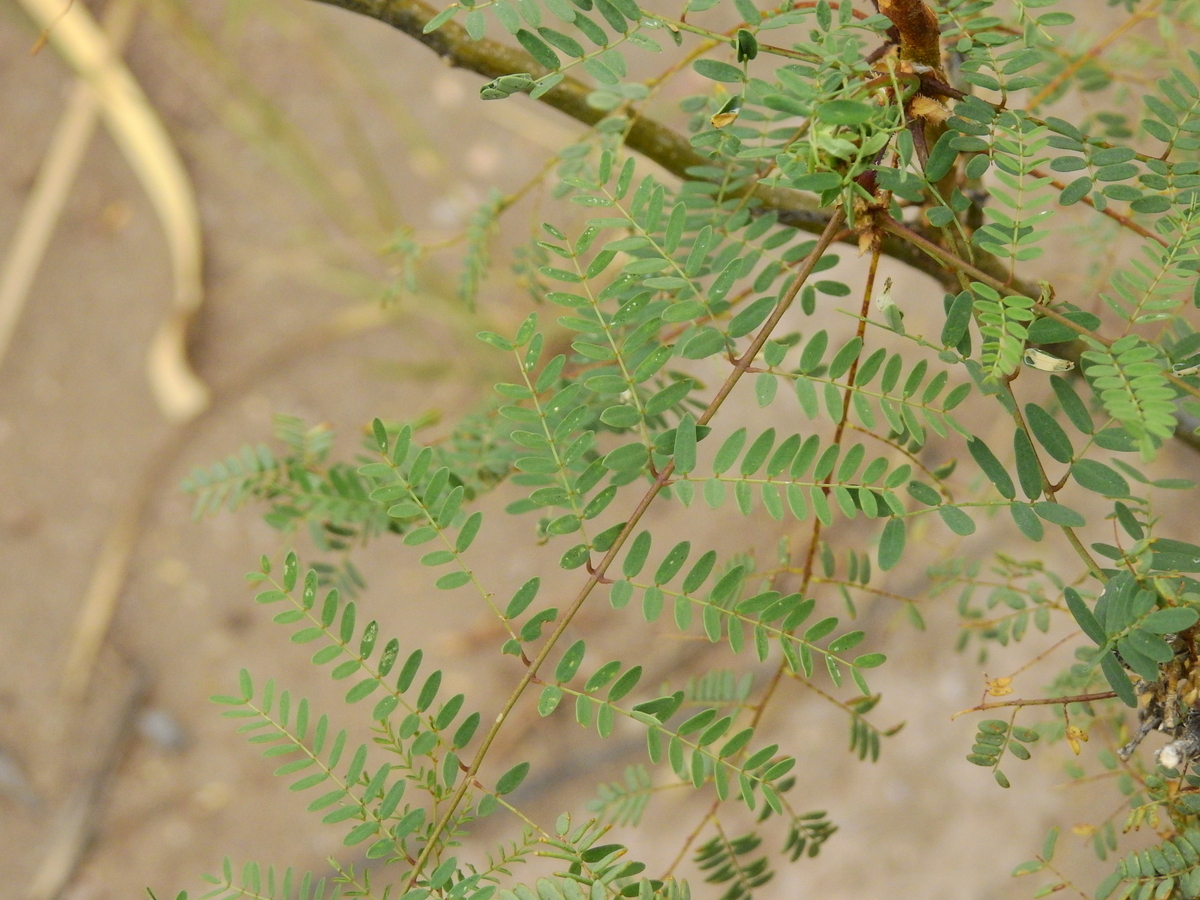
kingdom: Plantae
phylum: Tracheophyta
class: Magnoliopsida
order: Fabales
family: Fabaceae
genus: Erythrostemon
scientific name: Erythrostemon gilliesii
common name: Bird-of-paradise shrub
